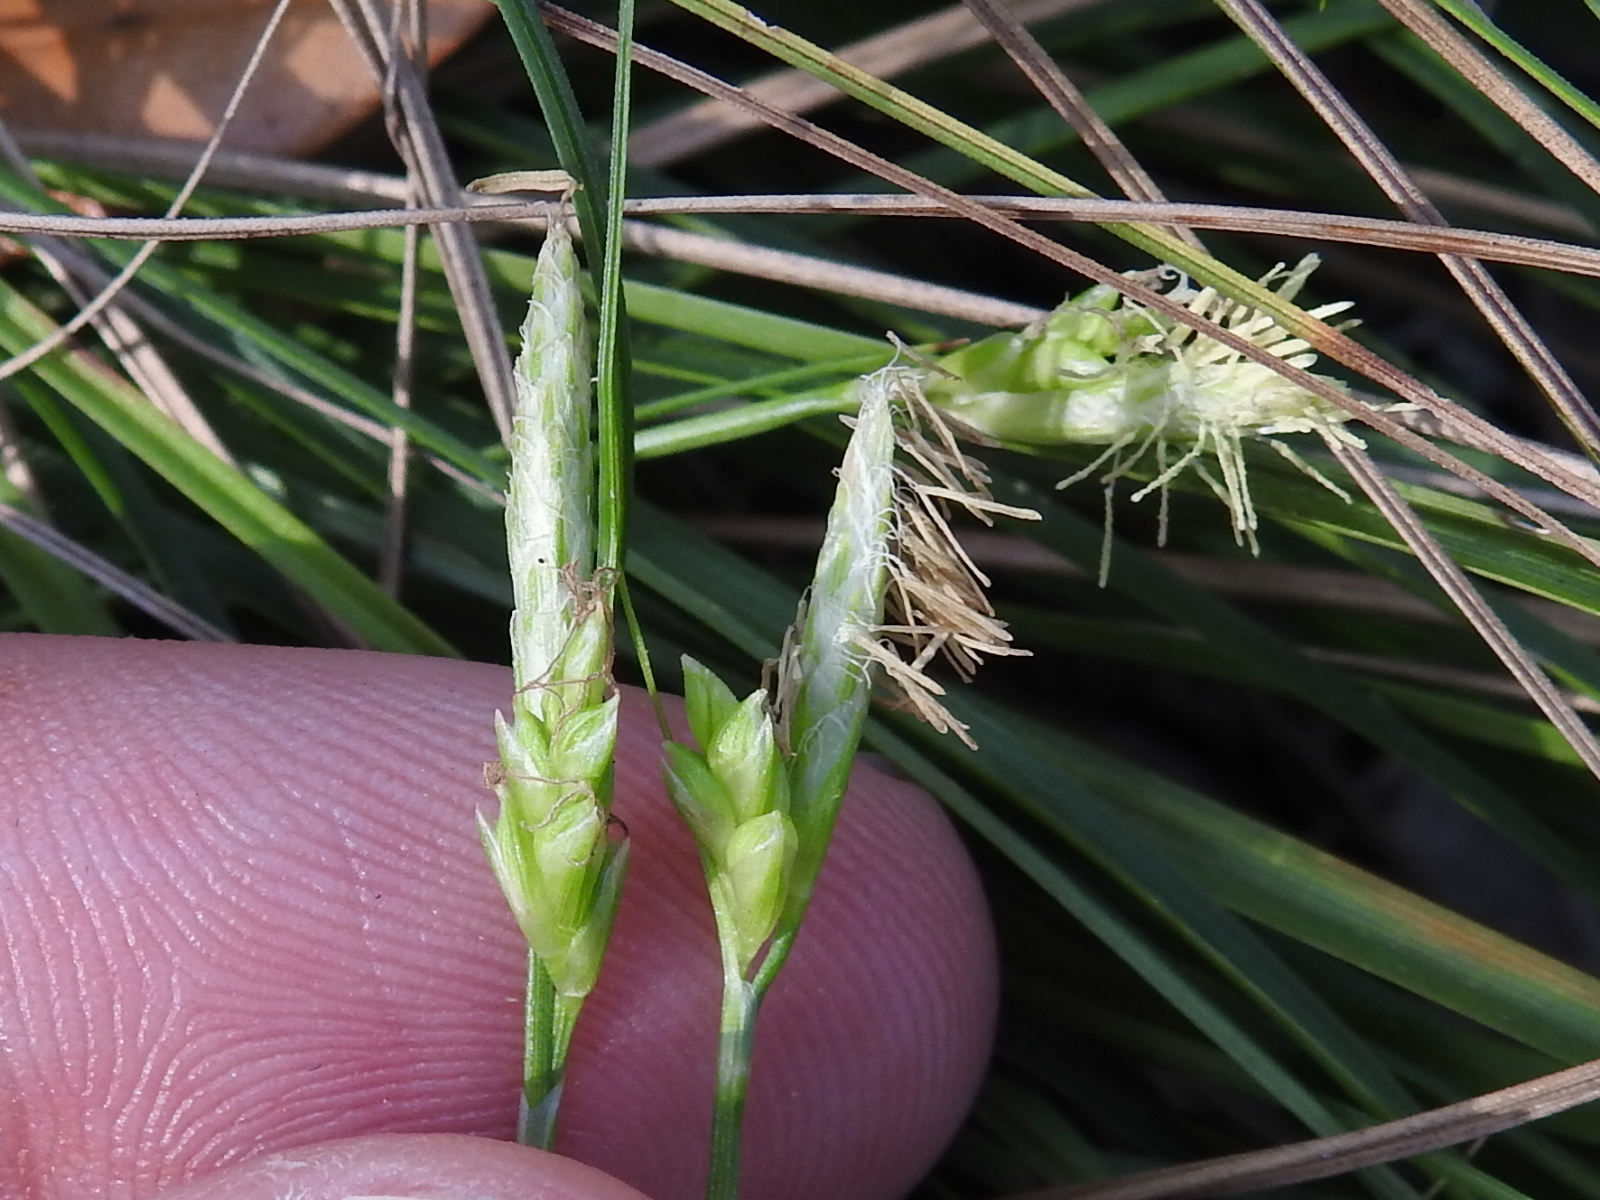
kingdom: Plantae
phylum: Tracheophyta
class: Liliopsida
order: Poales
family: Cyperaceae
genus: Carex
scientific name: Carex planostachys
